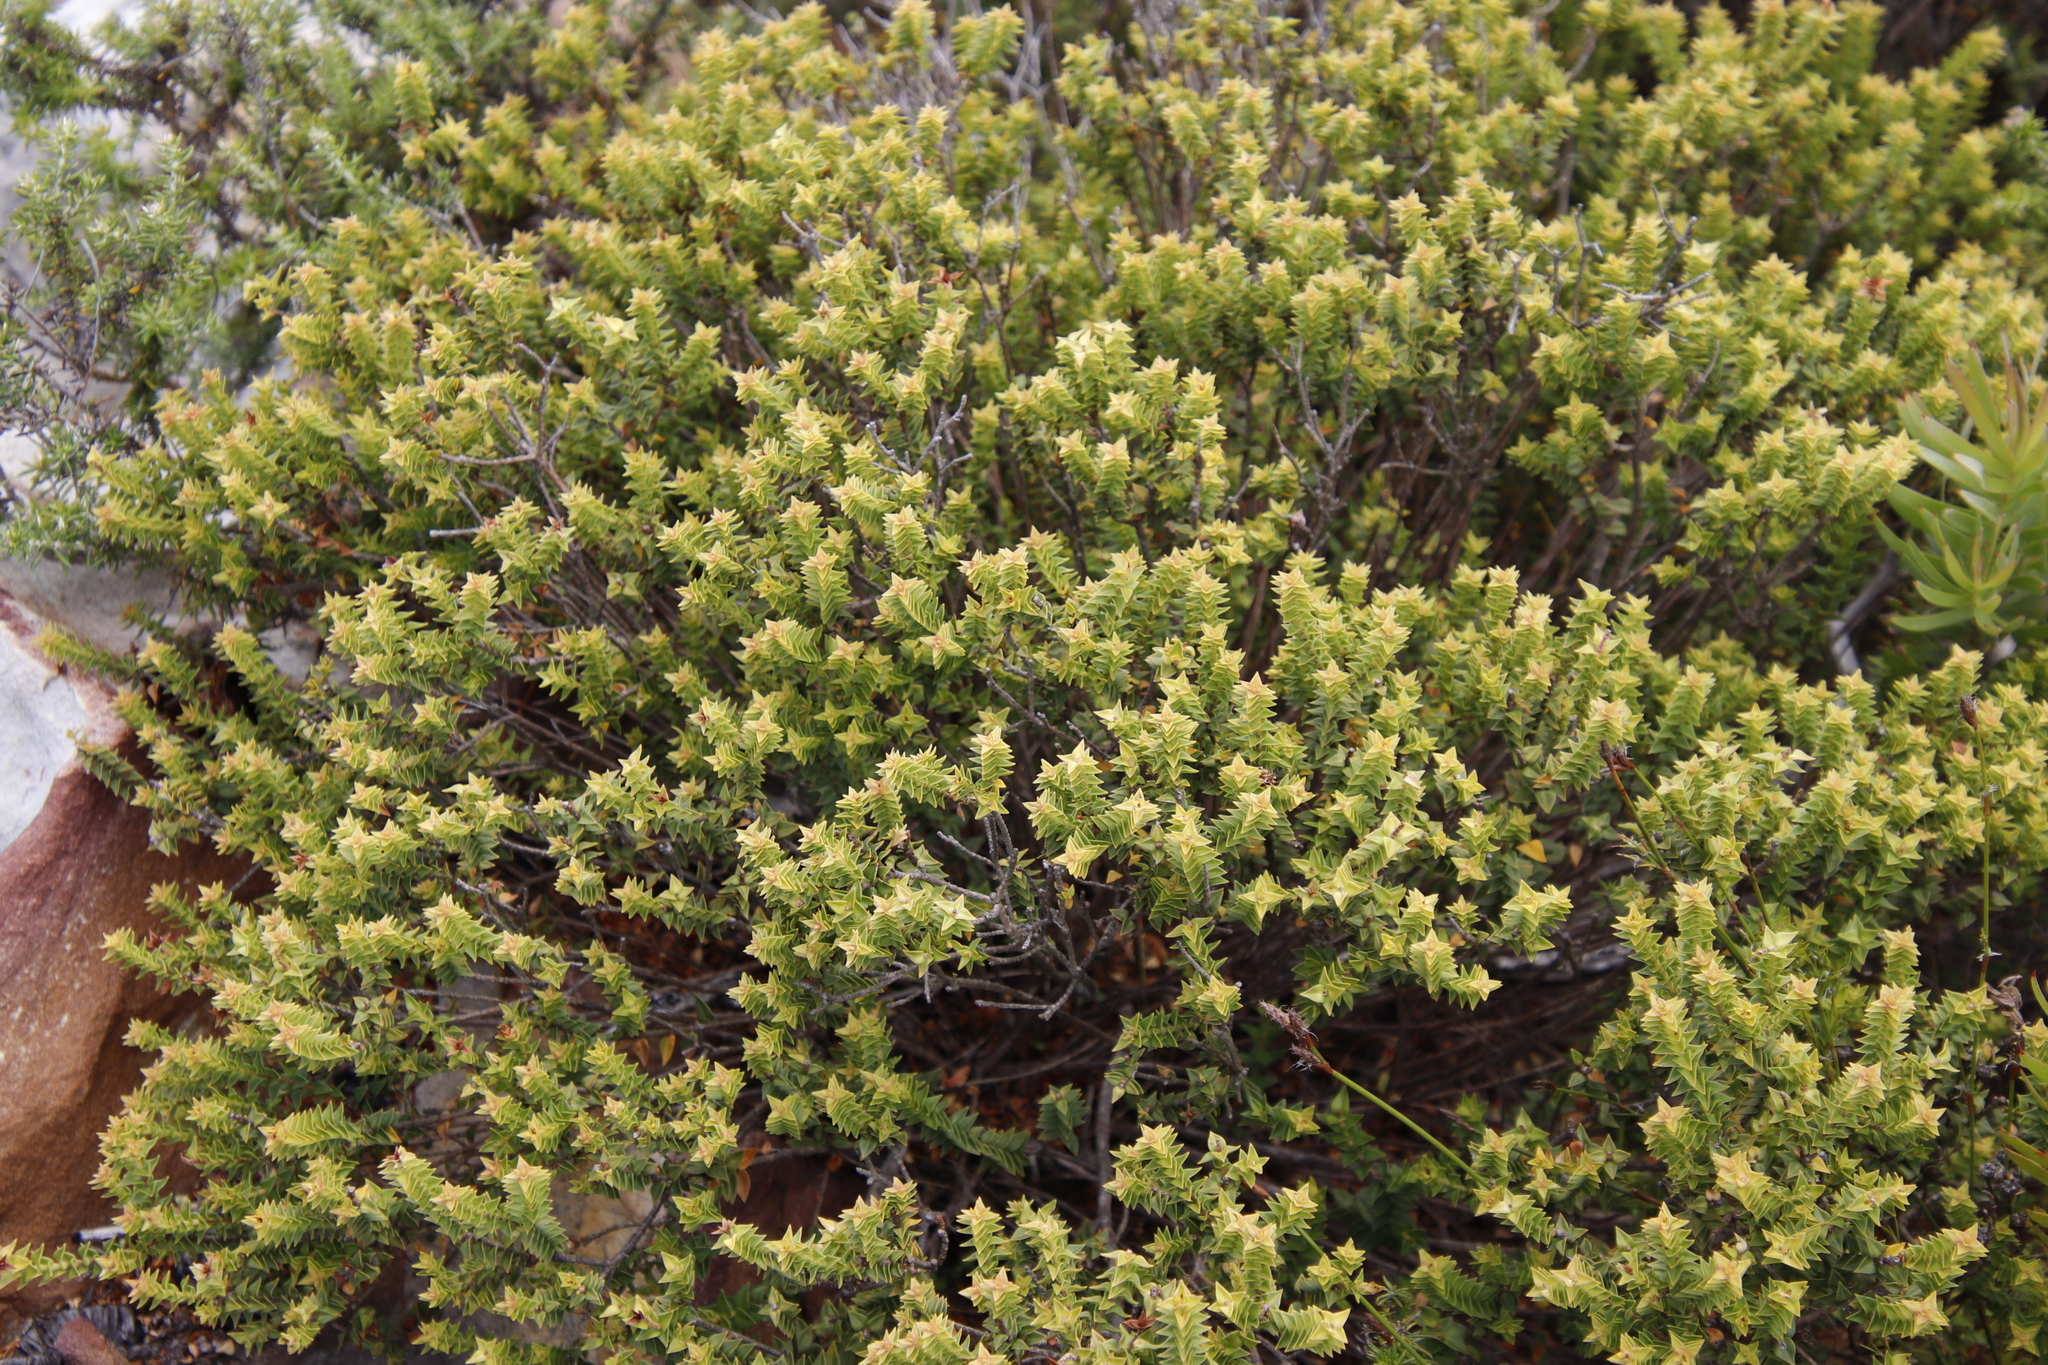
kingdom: Plantae
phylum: Tracheophyta
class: Magnoliopsida
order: Myrtales
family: Penaeaceae
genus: Penaea
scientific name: Penaea mucronata
